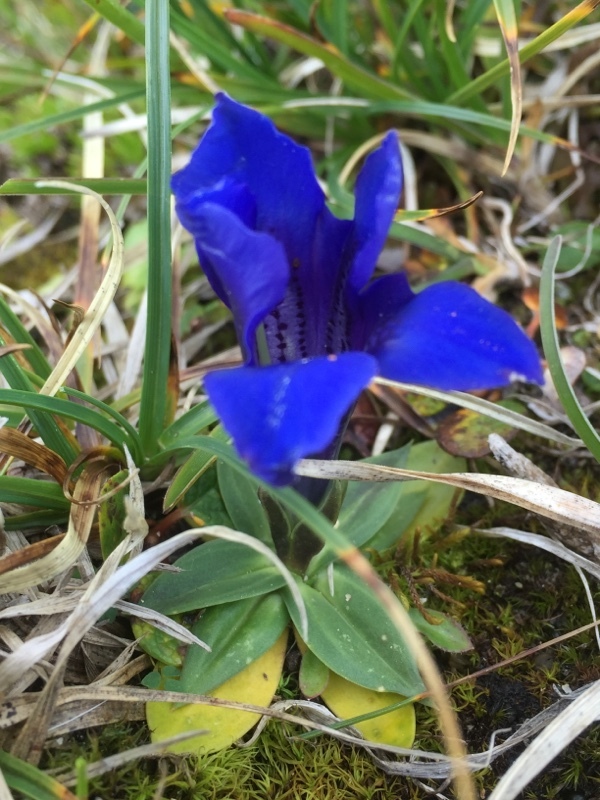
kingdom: Plantae
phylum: Tracheophyta
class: Magnoliopsida
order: Gentianales
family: Gentianaceae
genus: Gentiana
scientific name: Gentiana clusii
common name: Trumpet gentian
